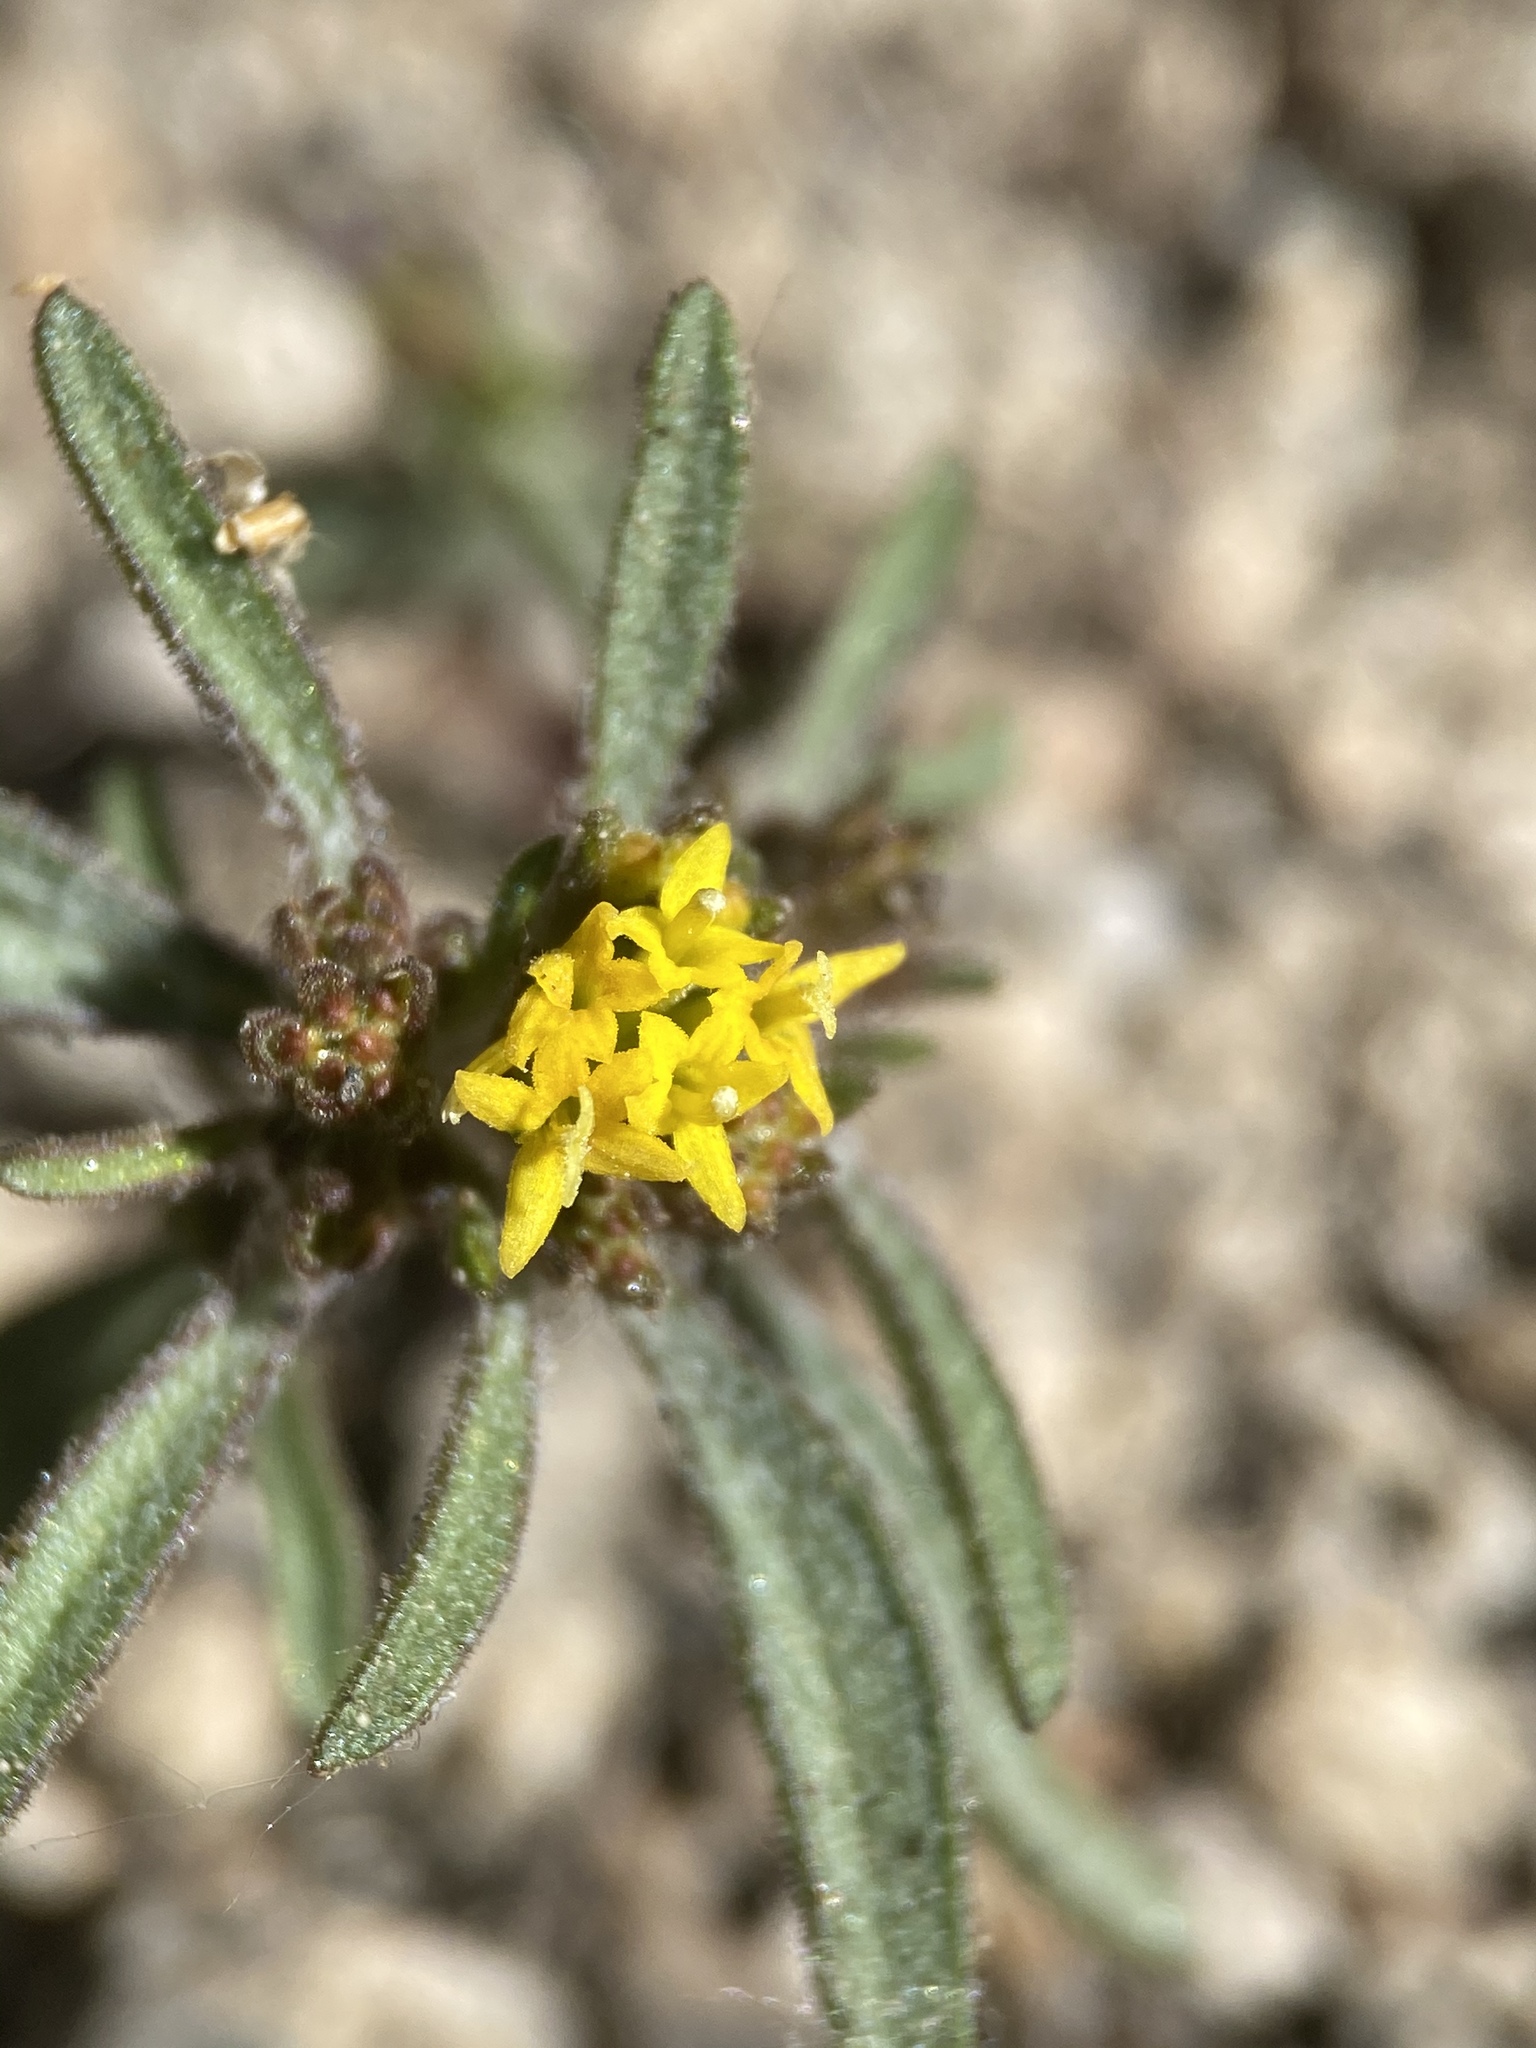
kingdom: Plantae
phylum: Tracheophyta
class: Magnoliopsida
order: Asterales
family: Asteraceae
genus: Orochaenactis
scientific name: Orochaenactis thysanocarpha
